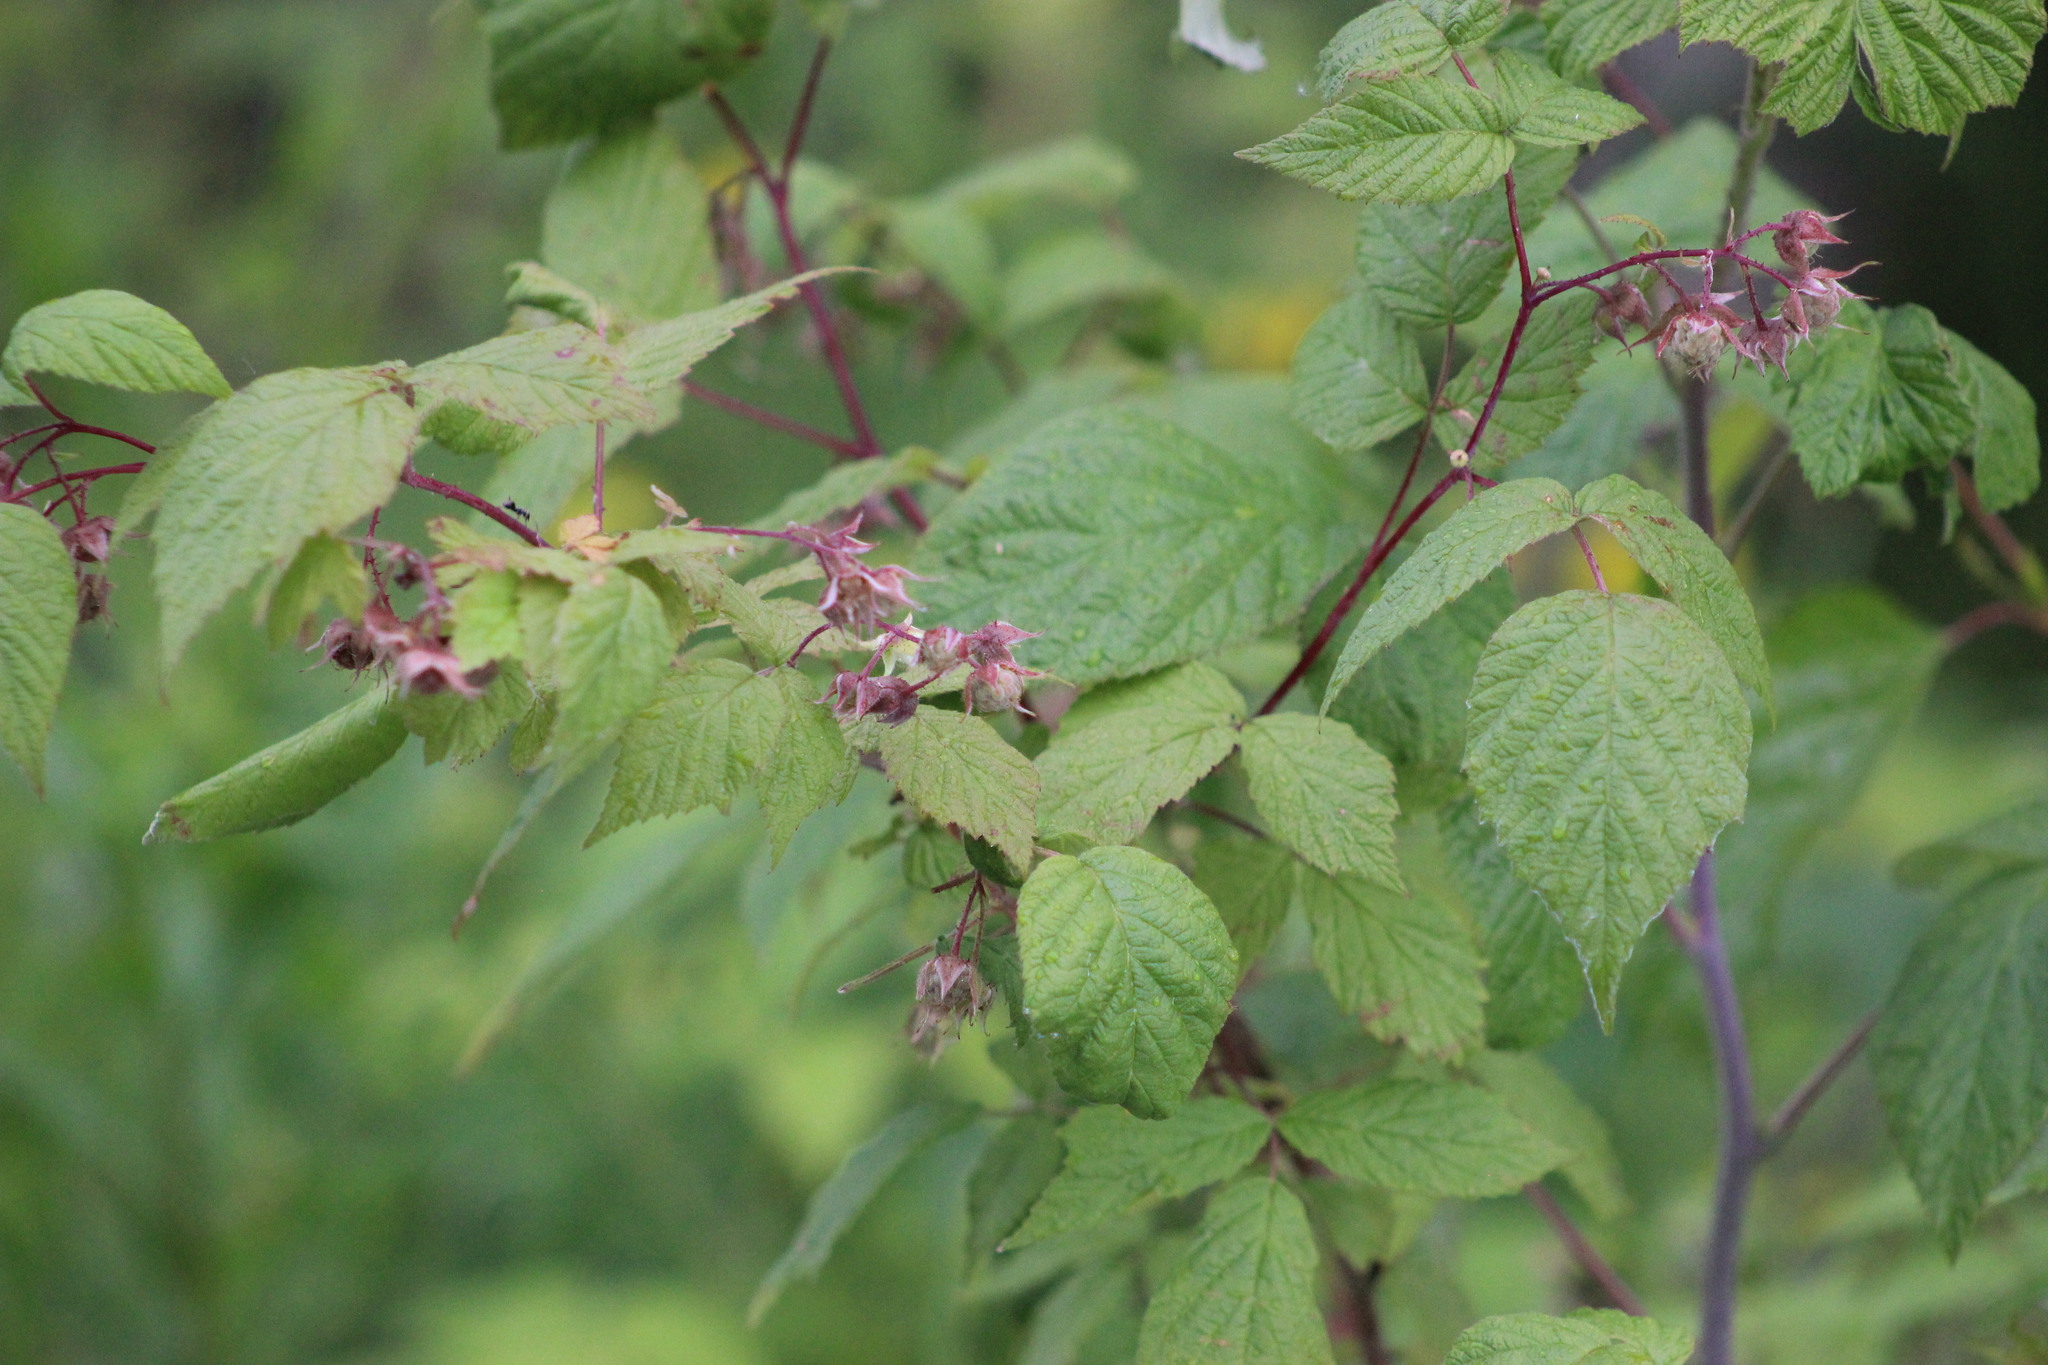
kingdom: Plantae
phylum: Tracheophyta
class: Magnoliopsida
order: Rosales
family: Rosaceae
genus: Rubus
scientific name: Rubus sachalinensis
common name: Red raspberry
